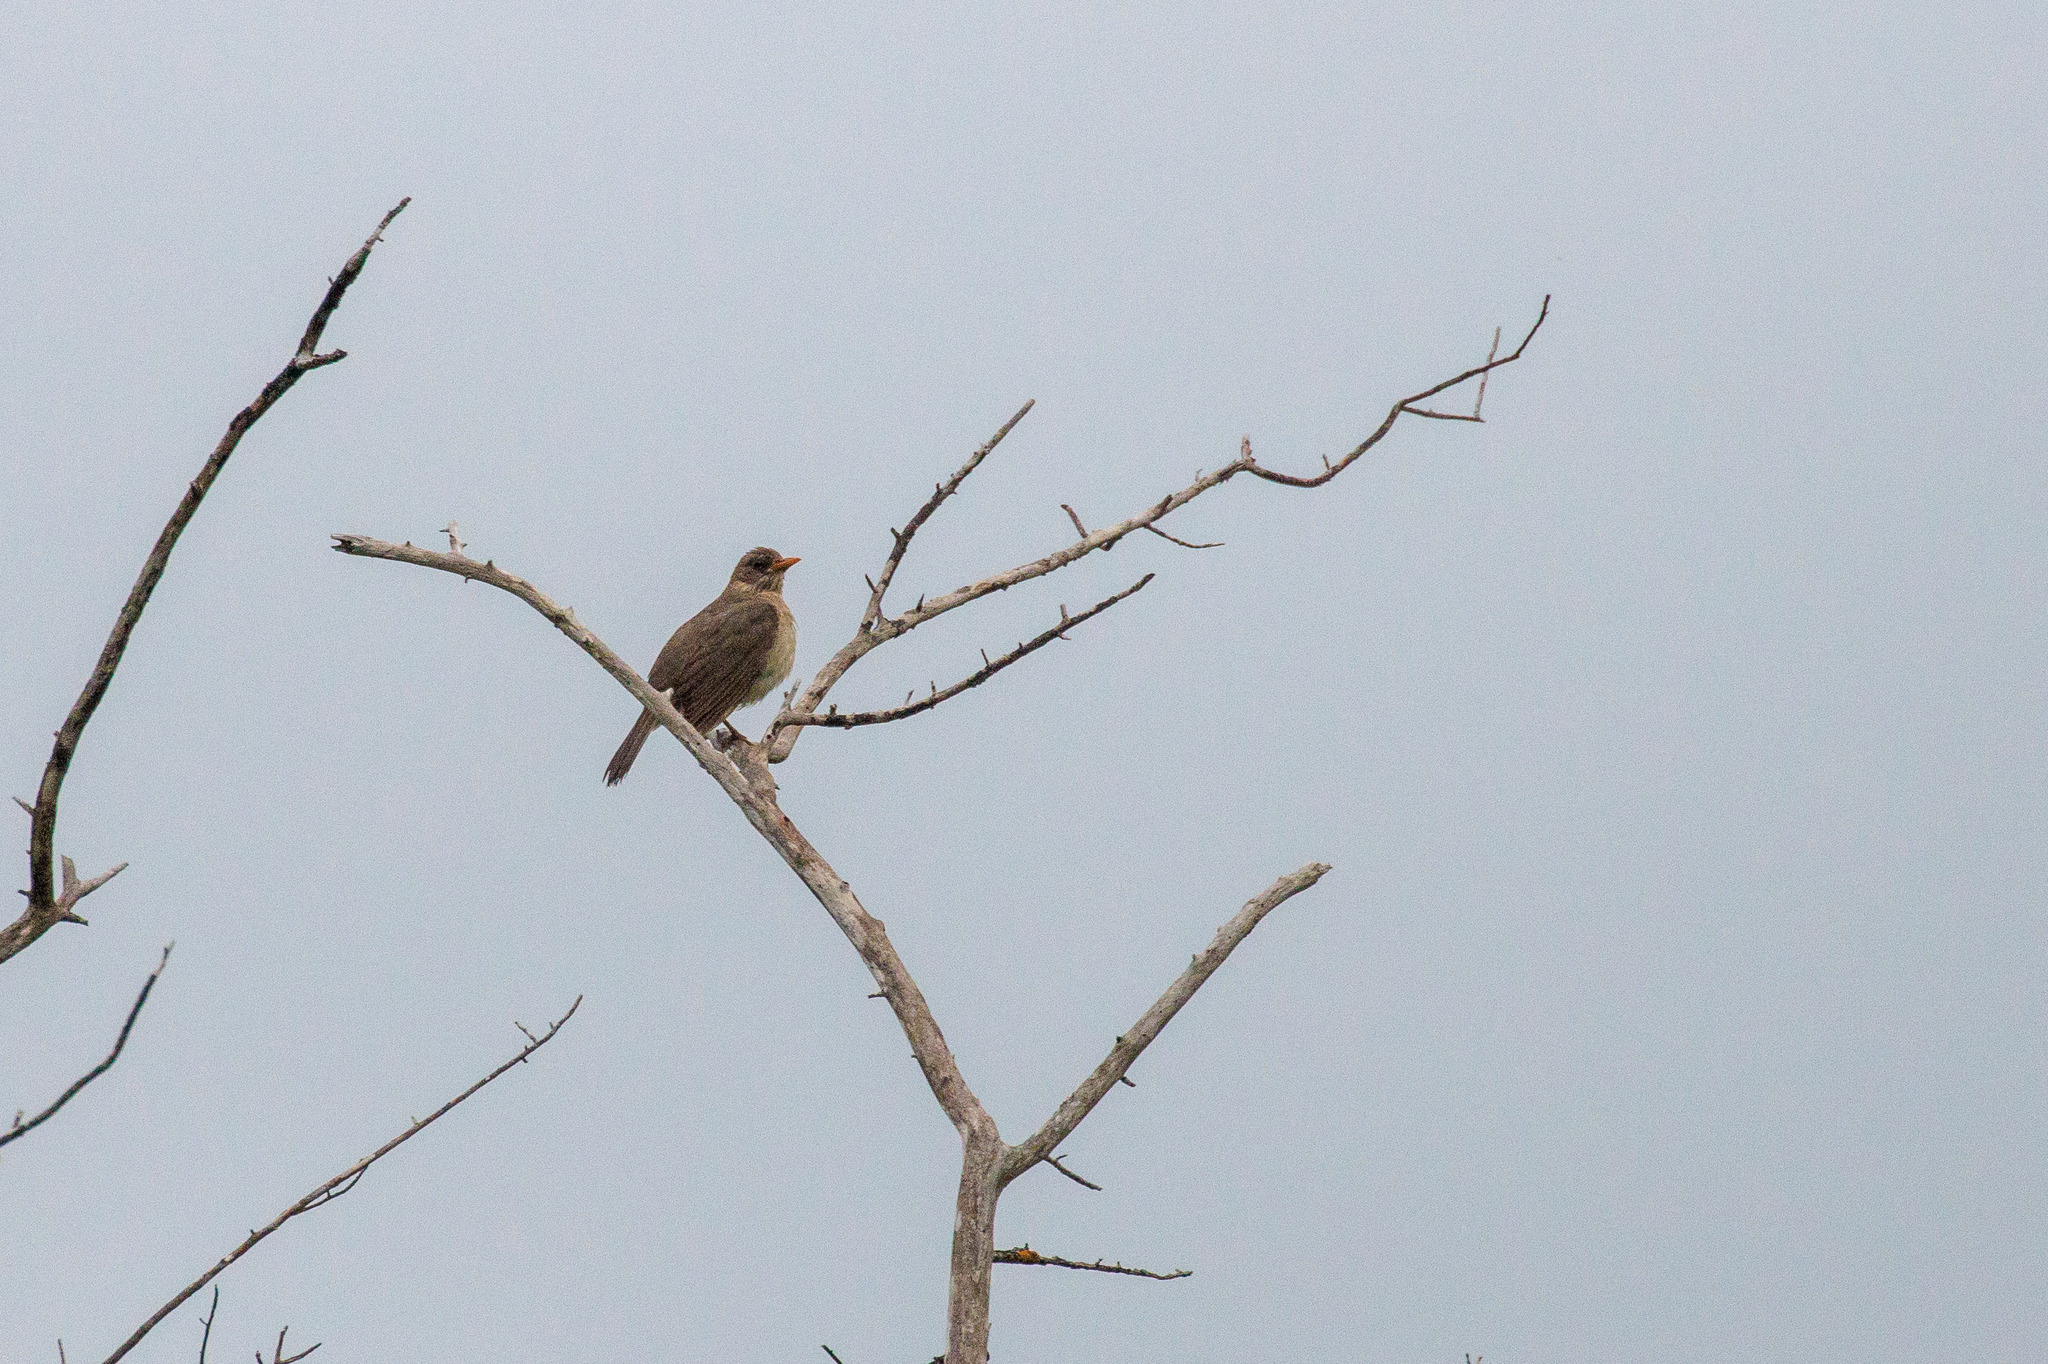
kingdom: Animalia
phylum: Chordata
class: Aves
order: Passeriformes
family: Turdidae
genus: Turdus
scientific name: Turdus amaurochalinus
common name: Creamy-bellied thrush
